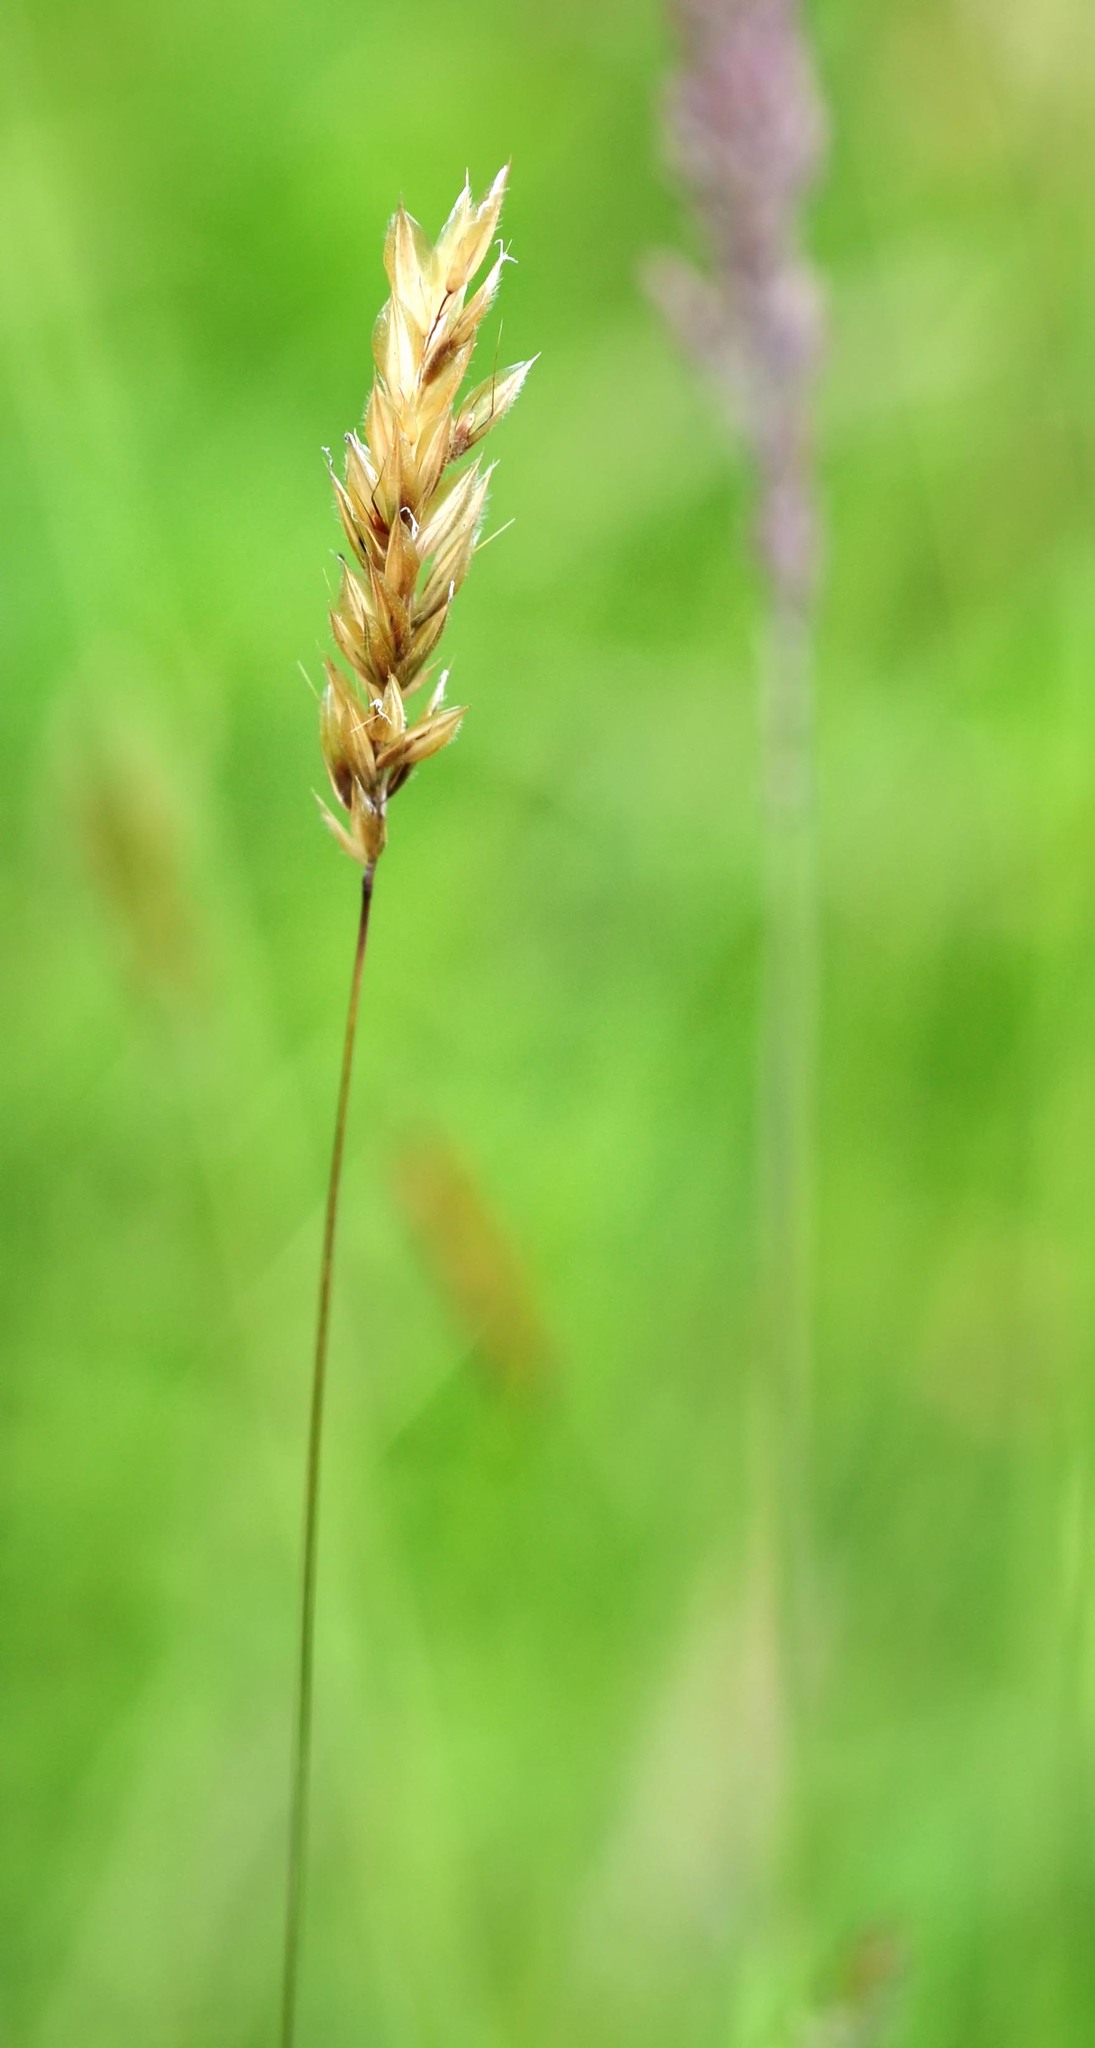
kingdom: Plantae
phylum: Tracheophyta
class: Liliopsida
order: Poales
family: Poaceae
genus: Anthoxanthum
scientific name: Anthoxanthum odoratum
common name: Sweet vernalgrass
